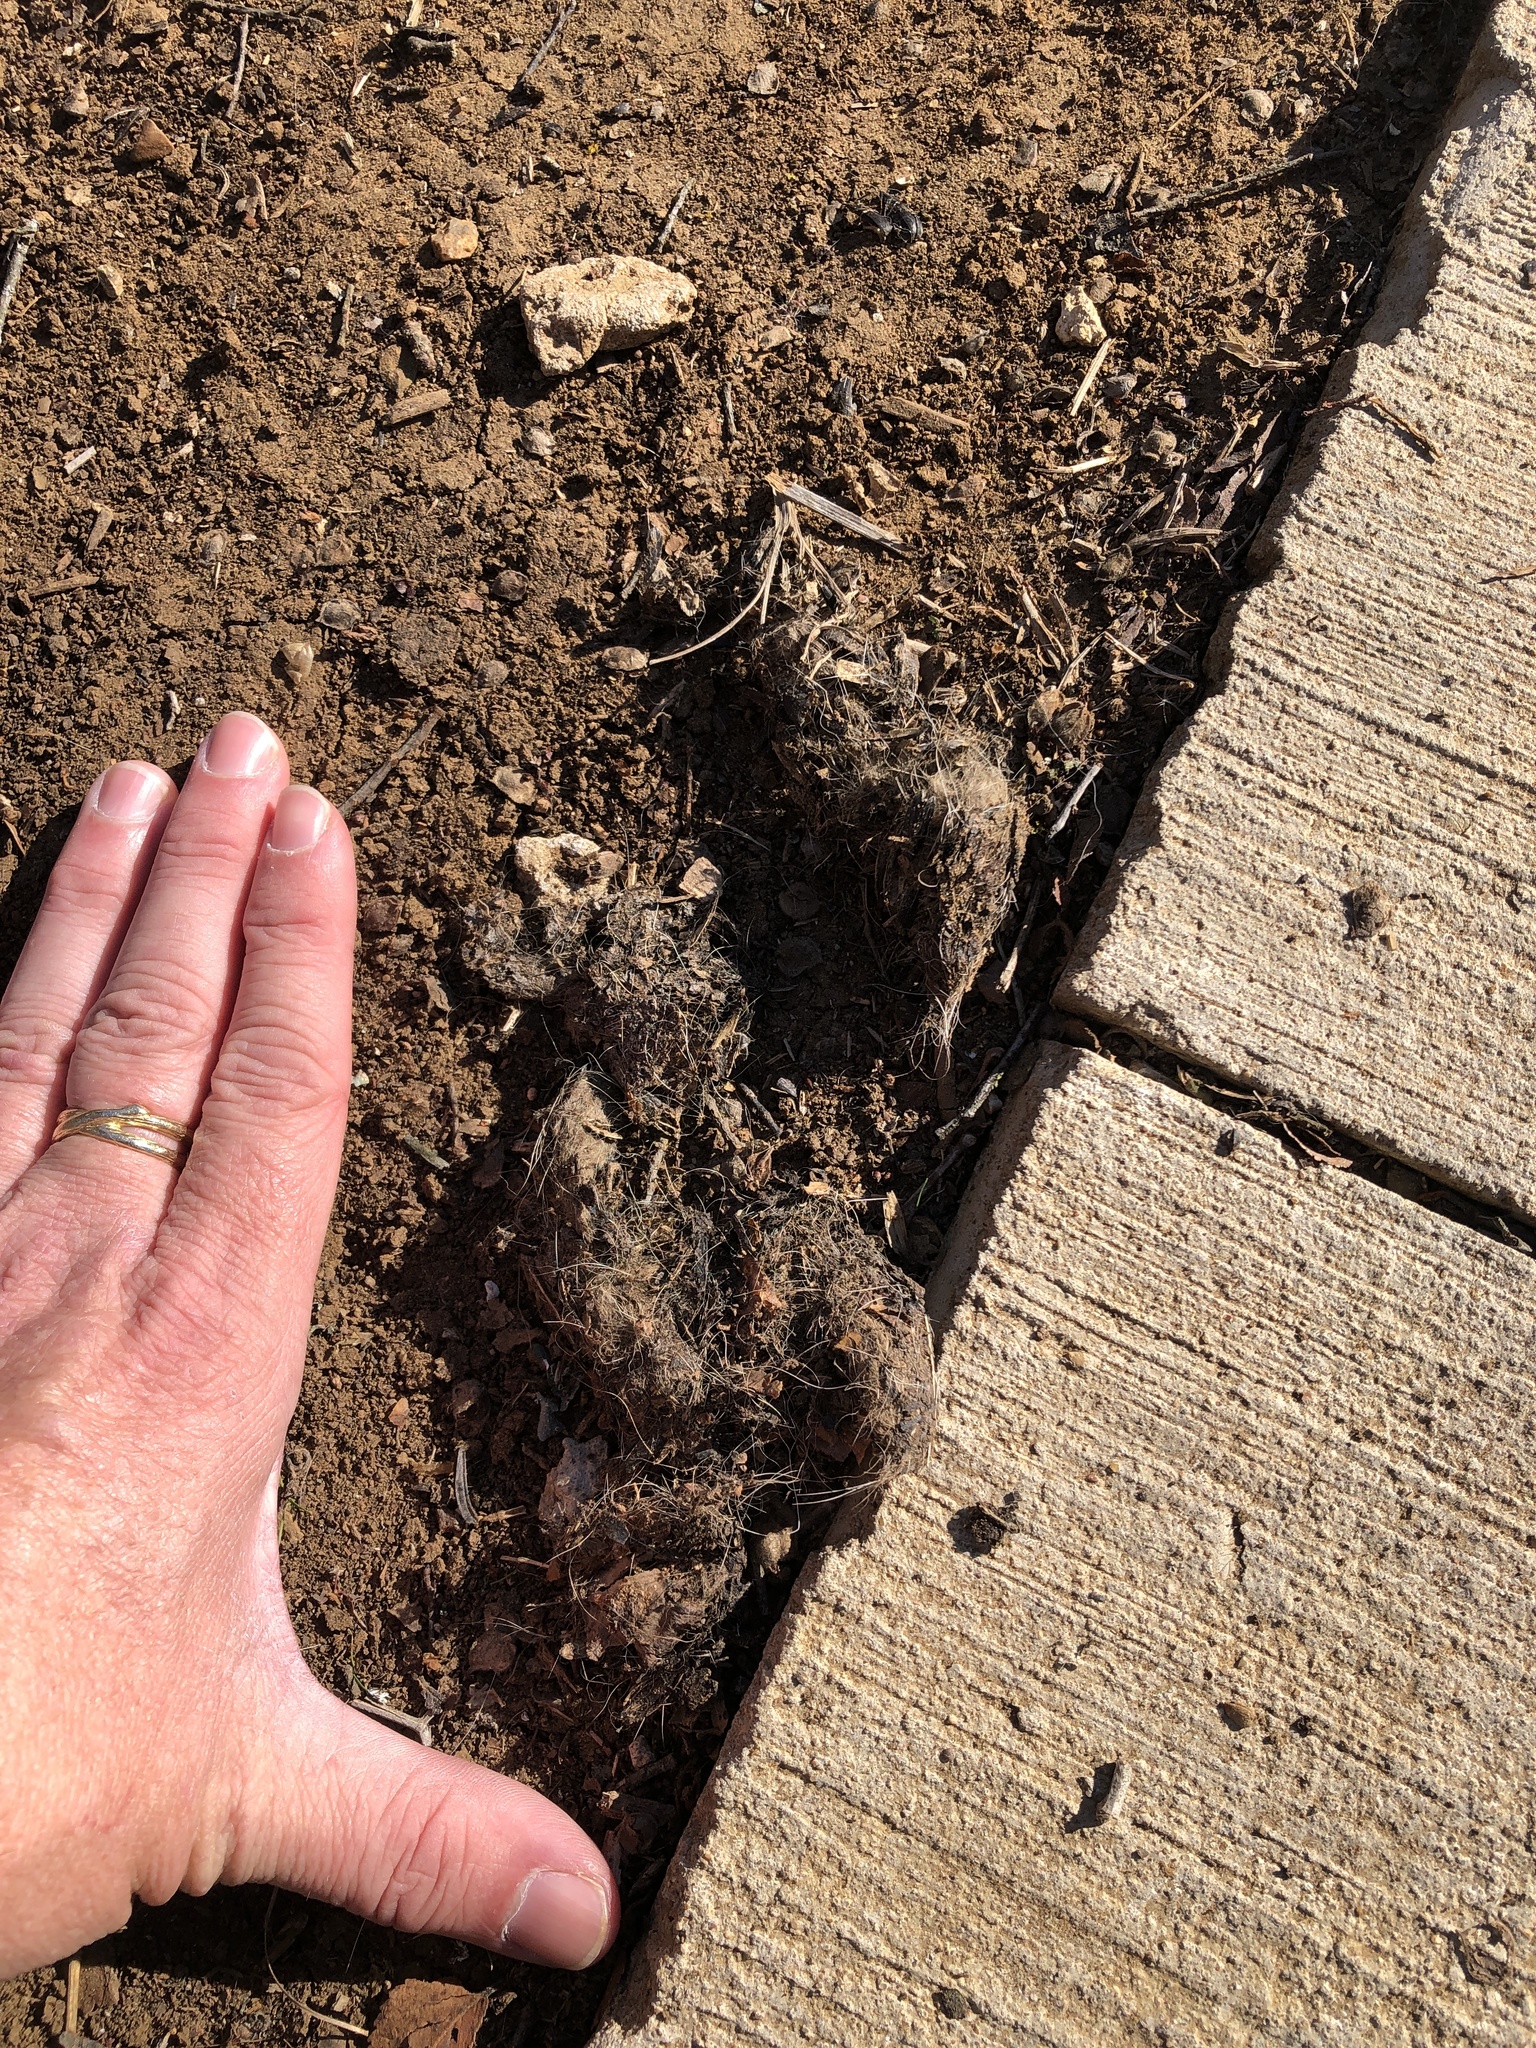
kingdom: Animalia
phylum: Chordata
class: Mammalia
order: Carnivora
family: Canidae
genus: Canis
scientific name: Canis latrans
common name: Coyote
